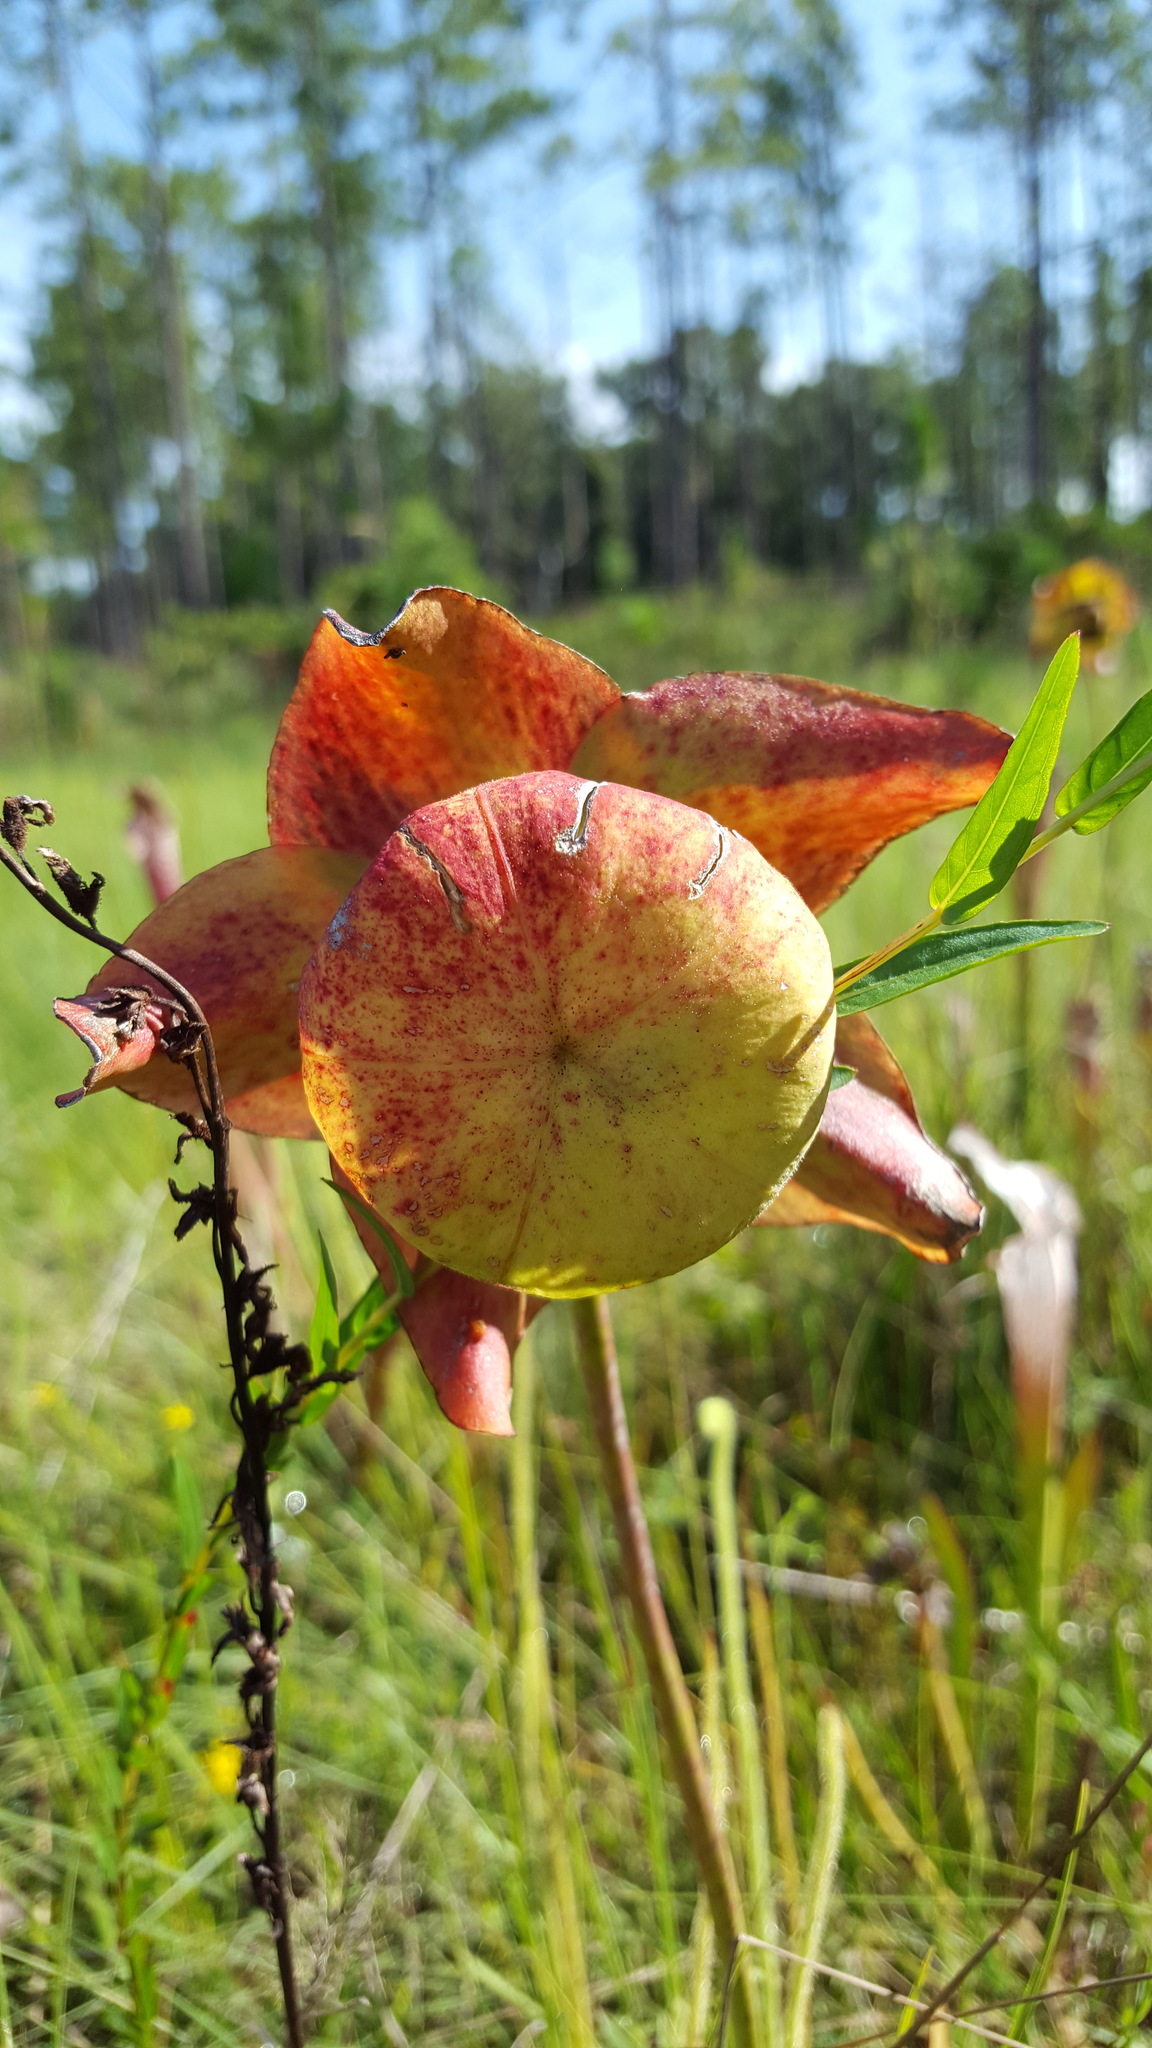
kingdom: Plantae
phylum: Tracheophyta
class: Magnoliopsida
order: Ericales
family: Sarraceniaceae
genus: Sarracenia
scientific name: Sarracenia leucophylla
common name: Purple trumpetleaf
